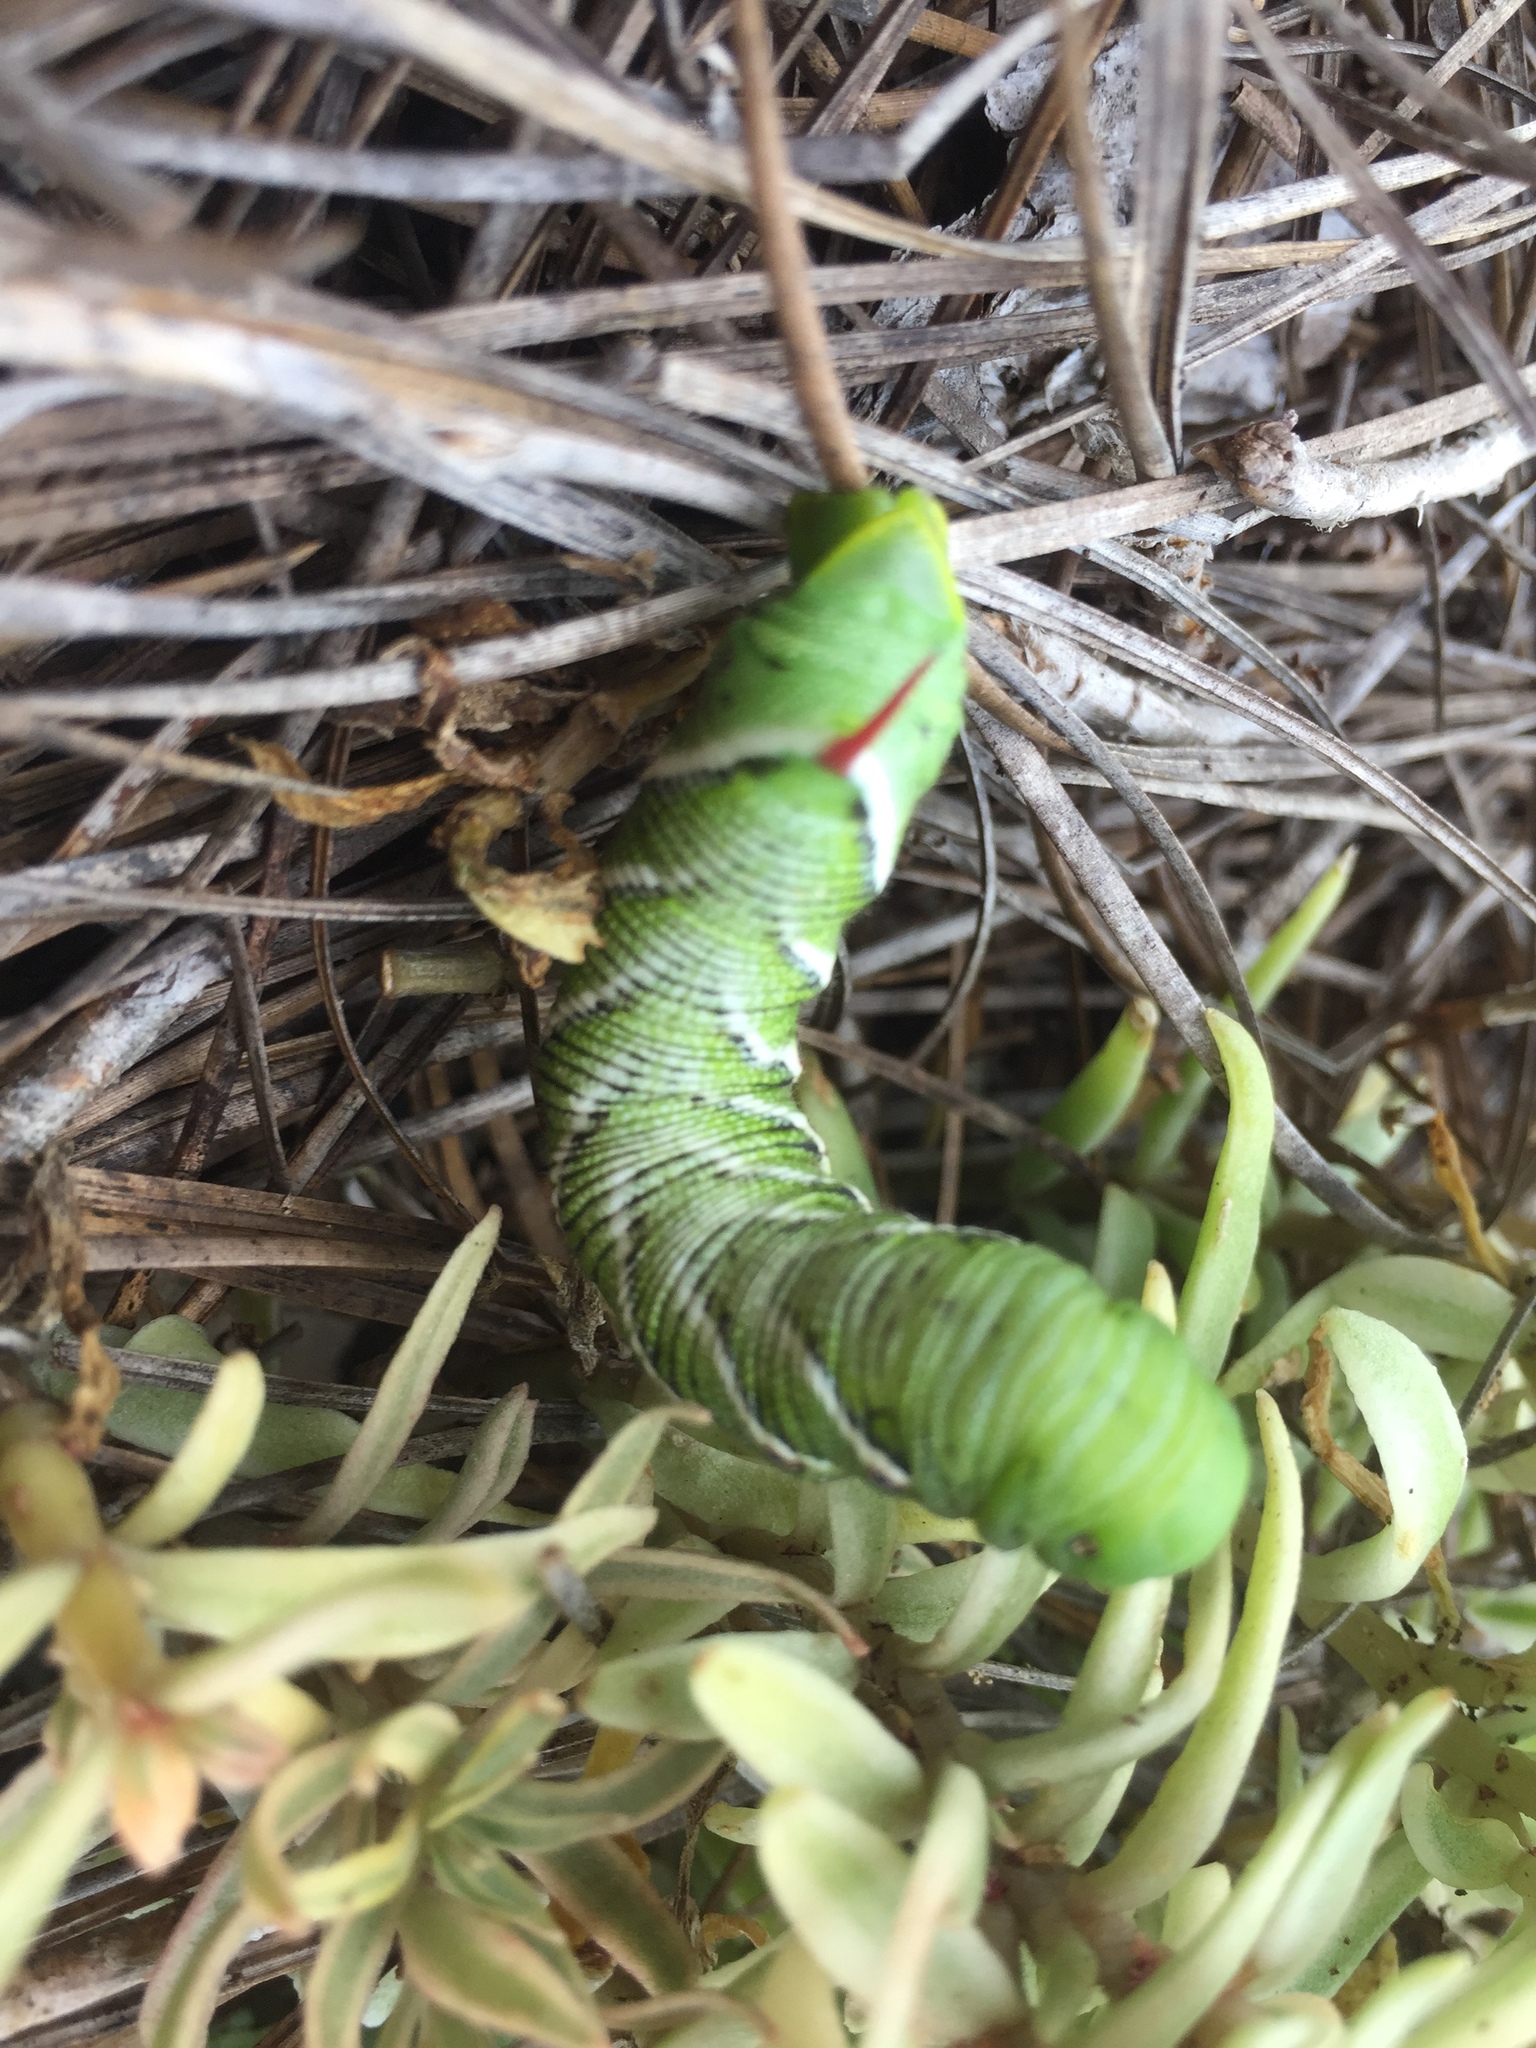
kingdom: Animalia
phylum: Arthropoda
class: Insecta
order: Lepidoptera
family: Sphingidae
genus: Manduca
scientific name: Manduca sexta
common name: Carolina sphinx
